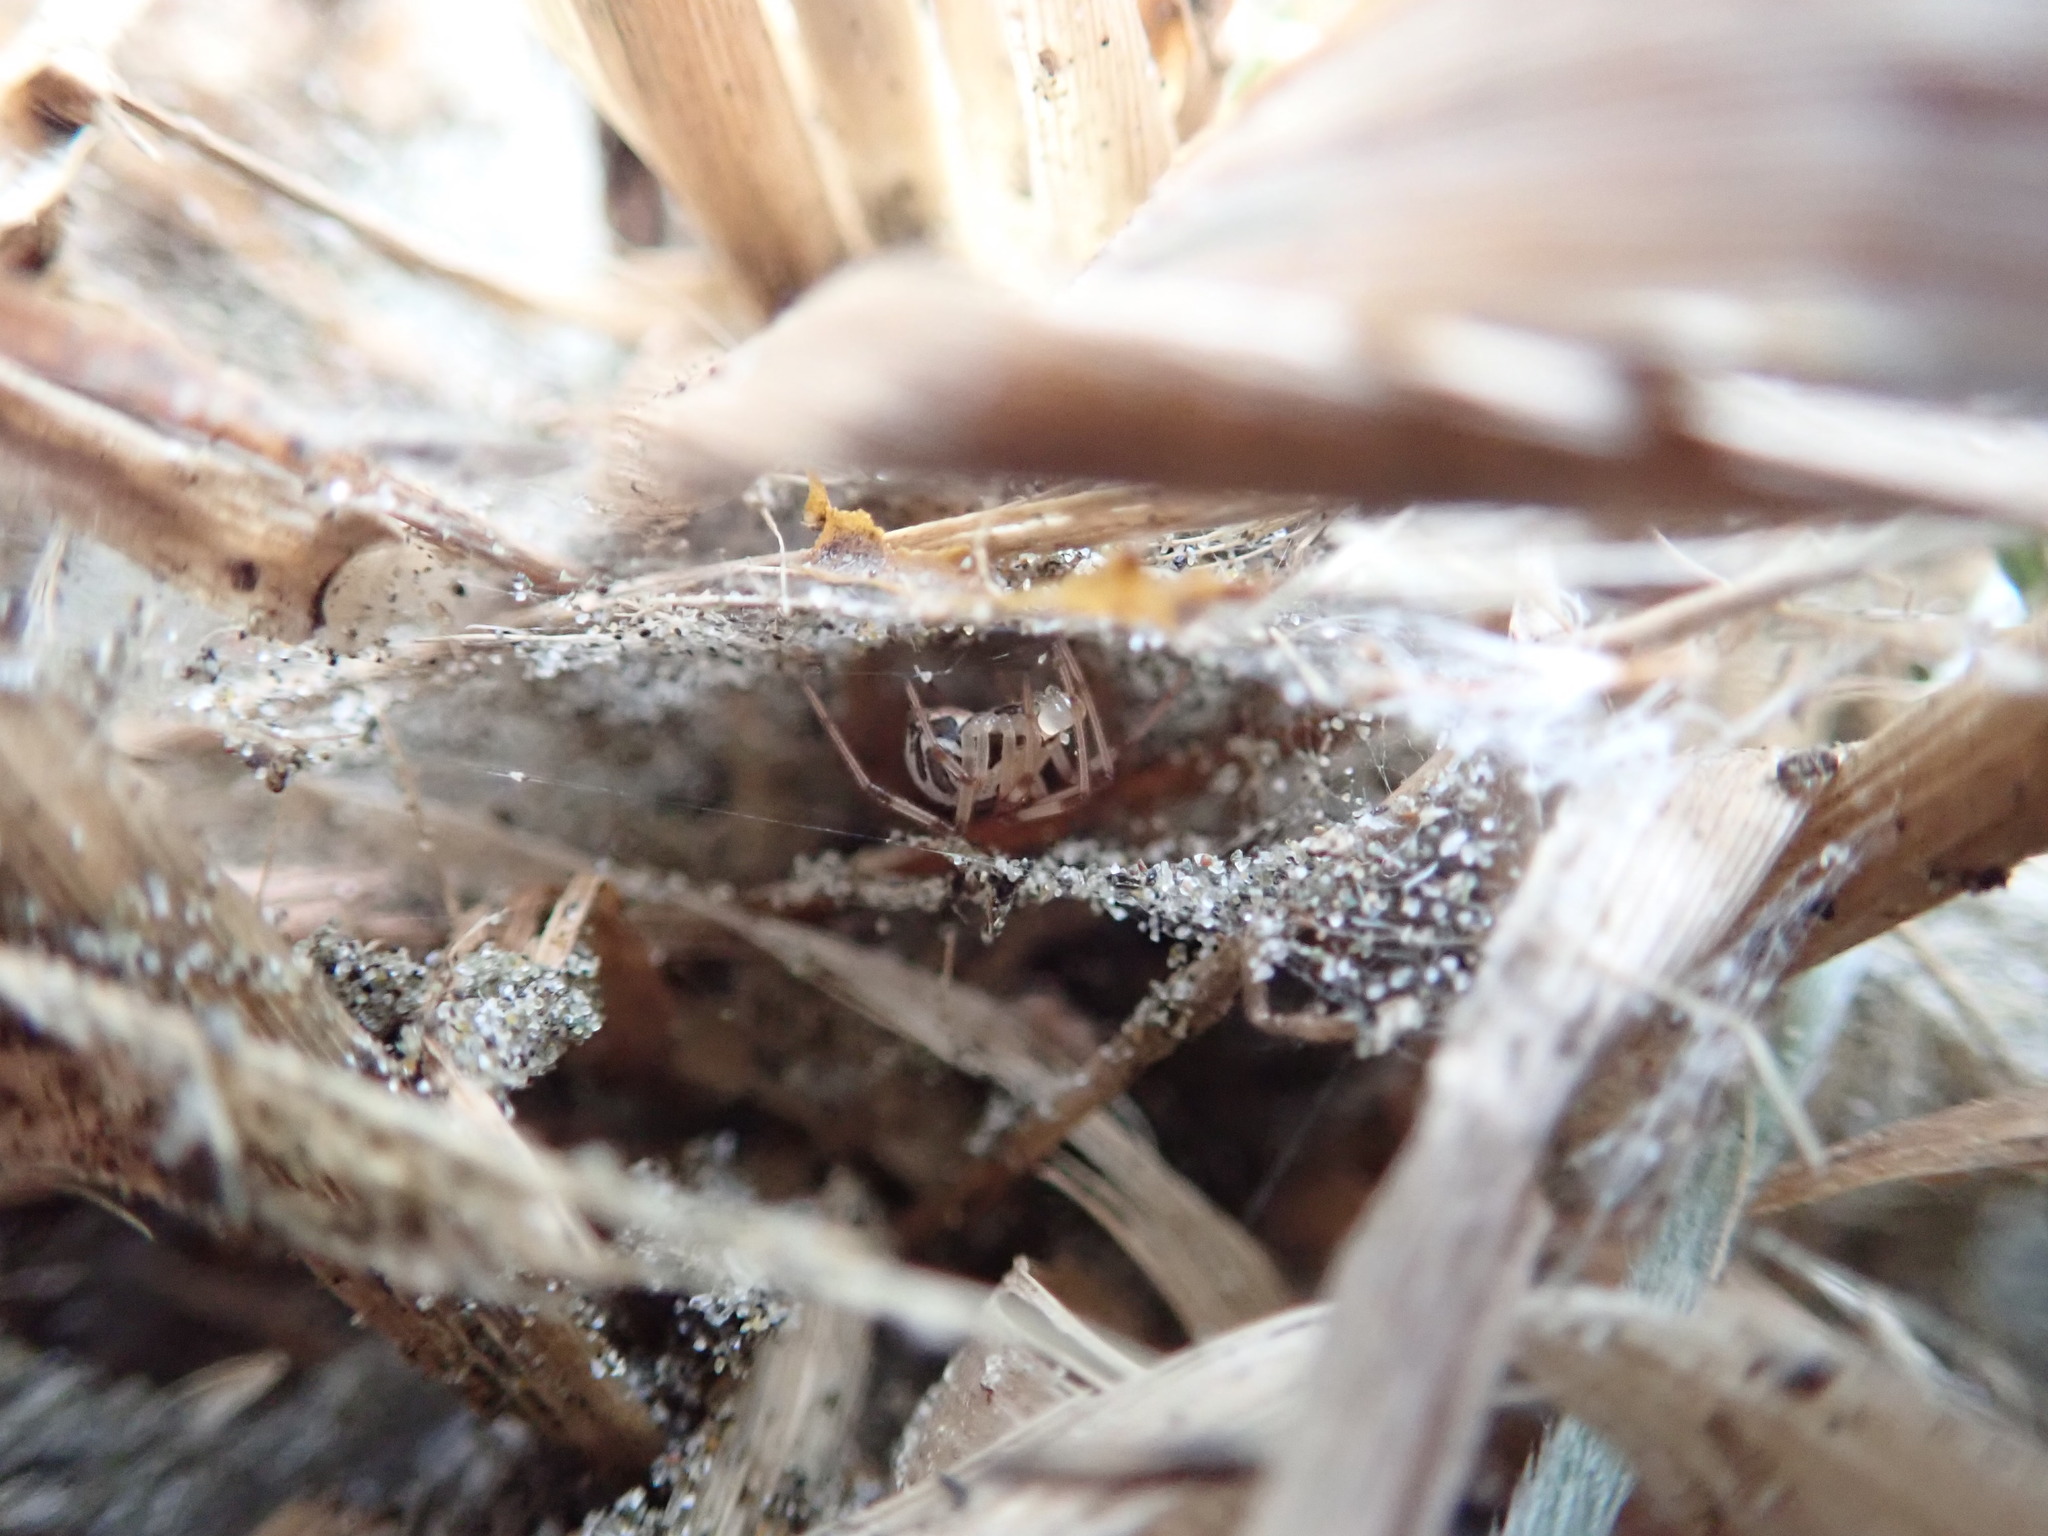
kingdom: Animalia
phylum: Arthropoda
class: Arachnida
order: Araneae
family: Theridiidae
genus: Latrodectus
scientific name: Latrodectus katipo
